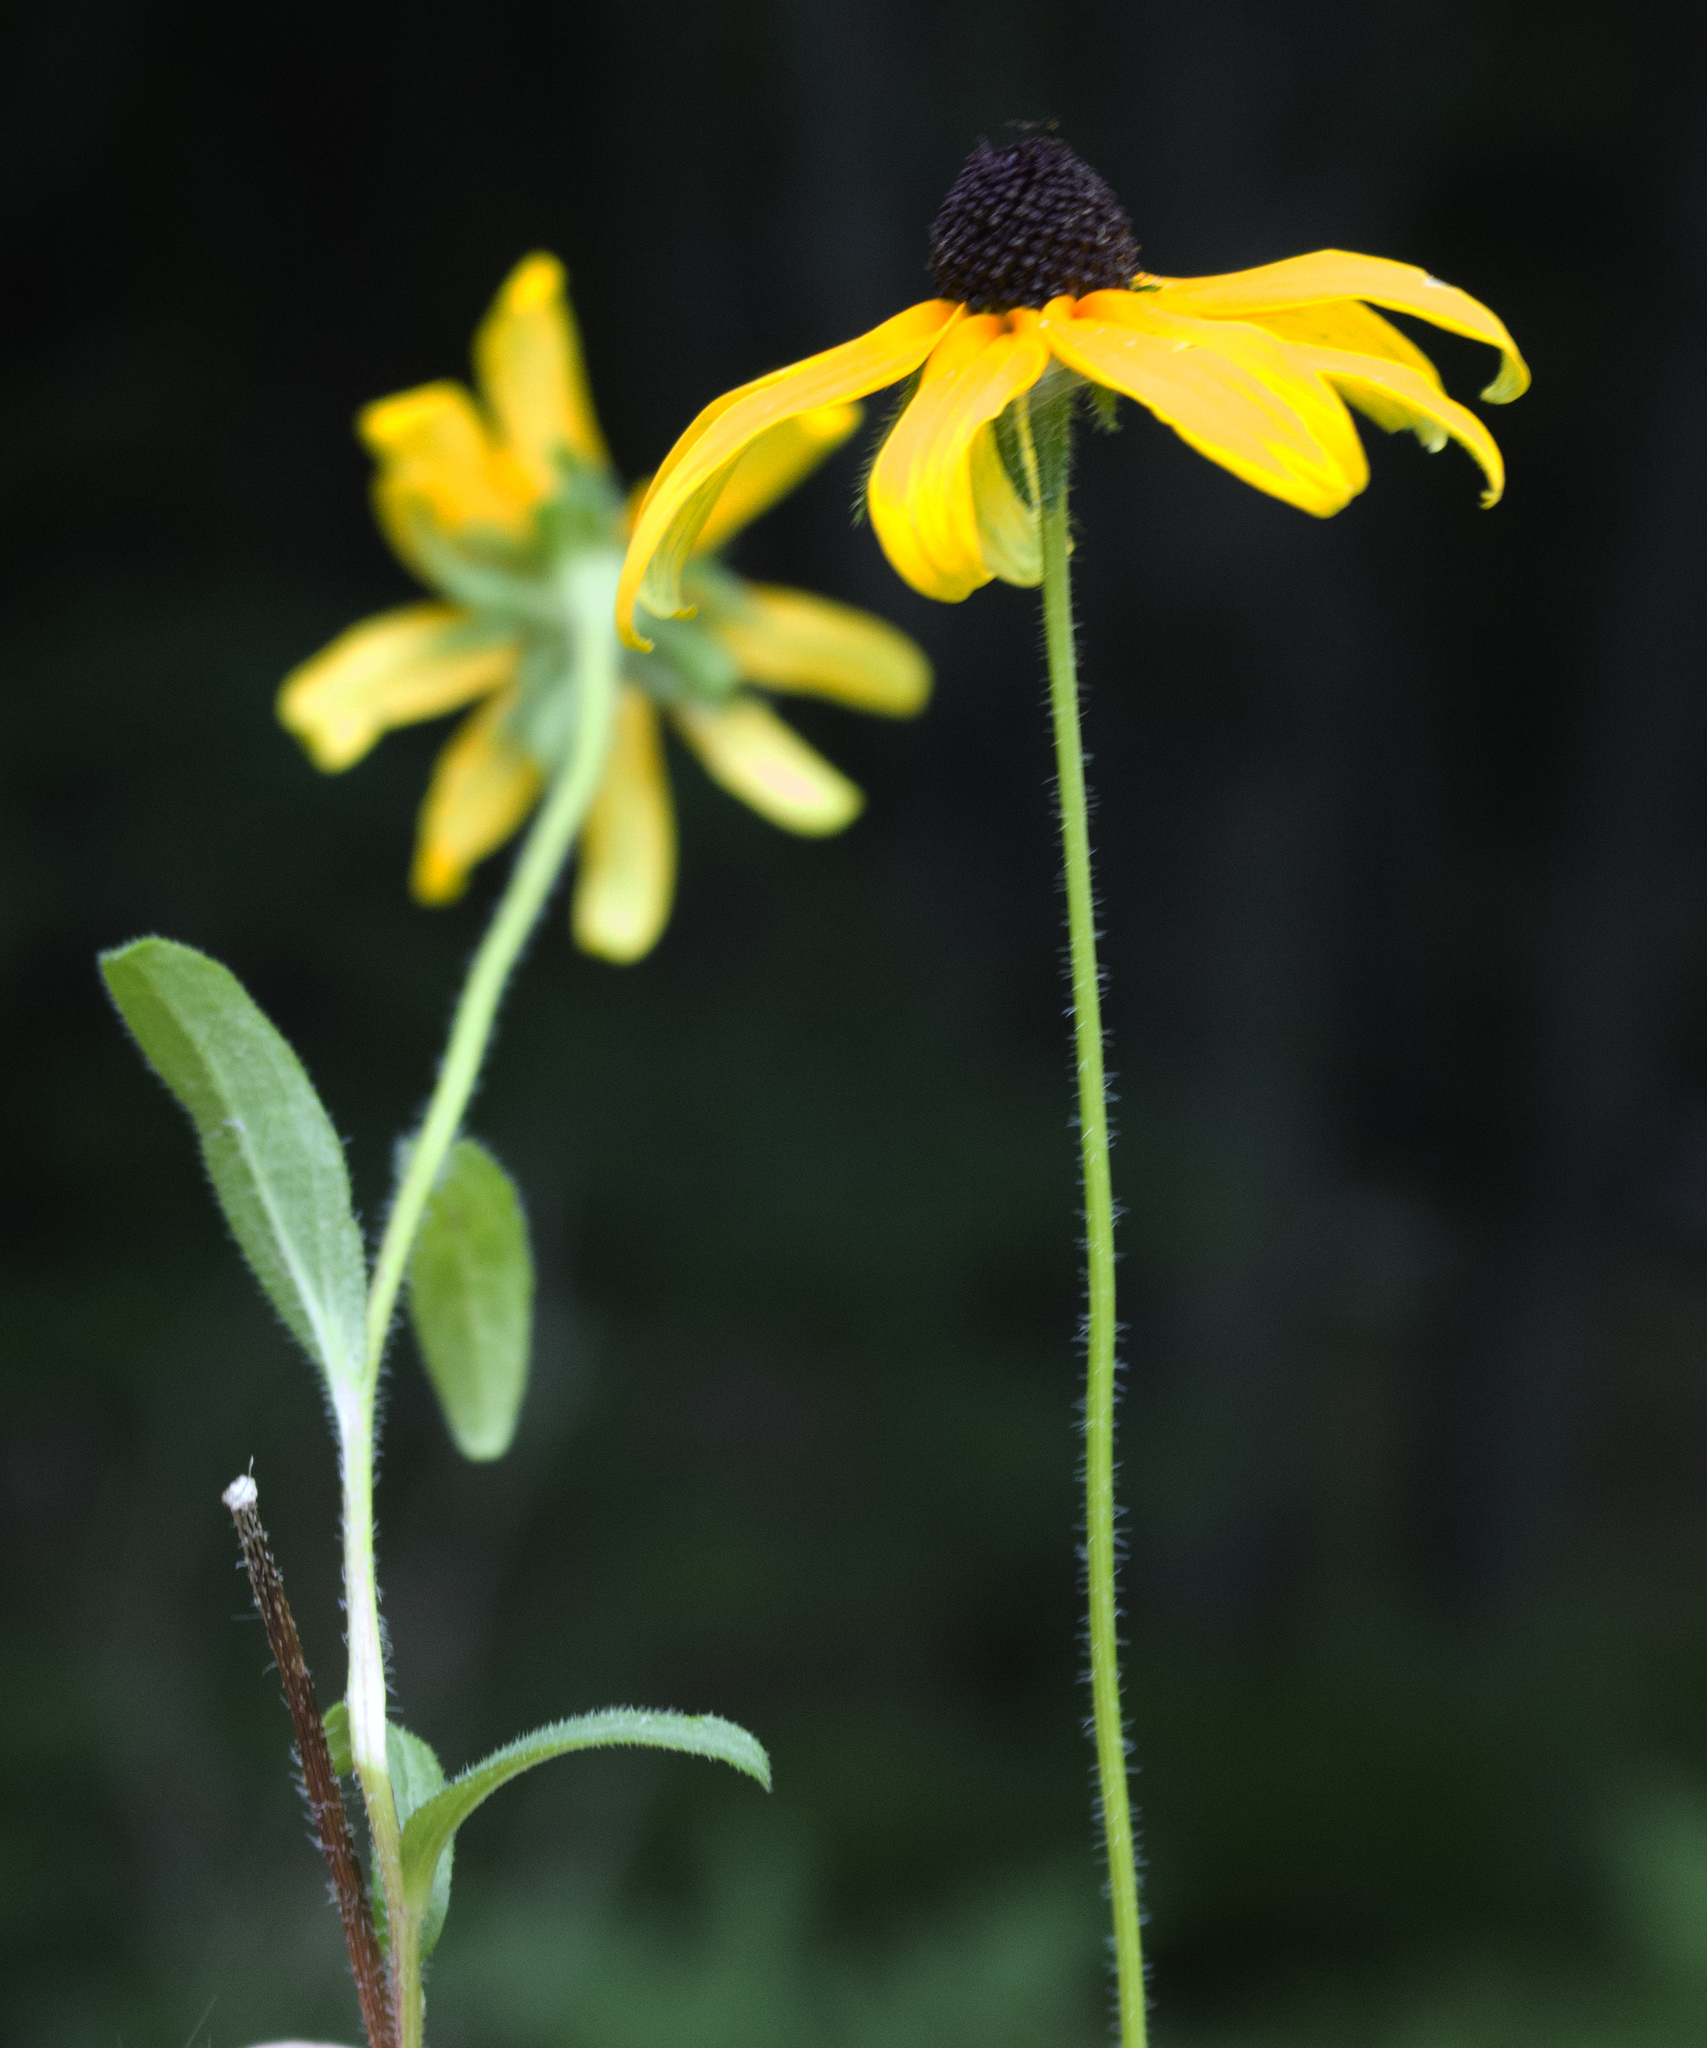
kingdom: Plantae
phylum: Tracheophyta
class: Magnoliopsida
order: Asterales
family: Asteraceae
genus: Rudbeckia
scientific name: Rudbeckia hirta
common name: Black-eyed-susan
